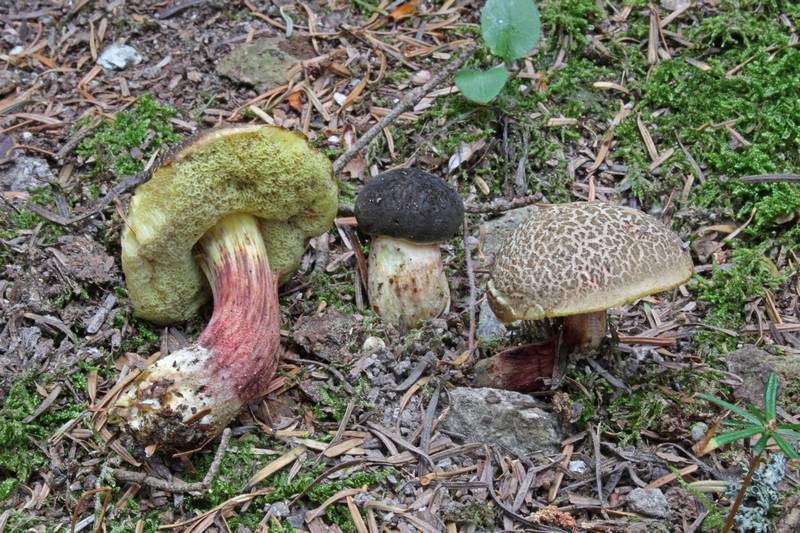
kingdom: Fungi
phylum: Basidiomycota
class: Agaricomycetes
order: Boletales
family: Boletaceae
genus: Xerocomellus
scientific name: Xerocomellus chrysenteron
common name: Red-cracking bolete
